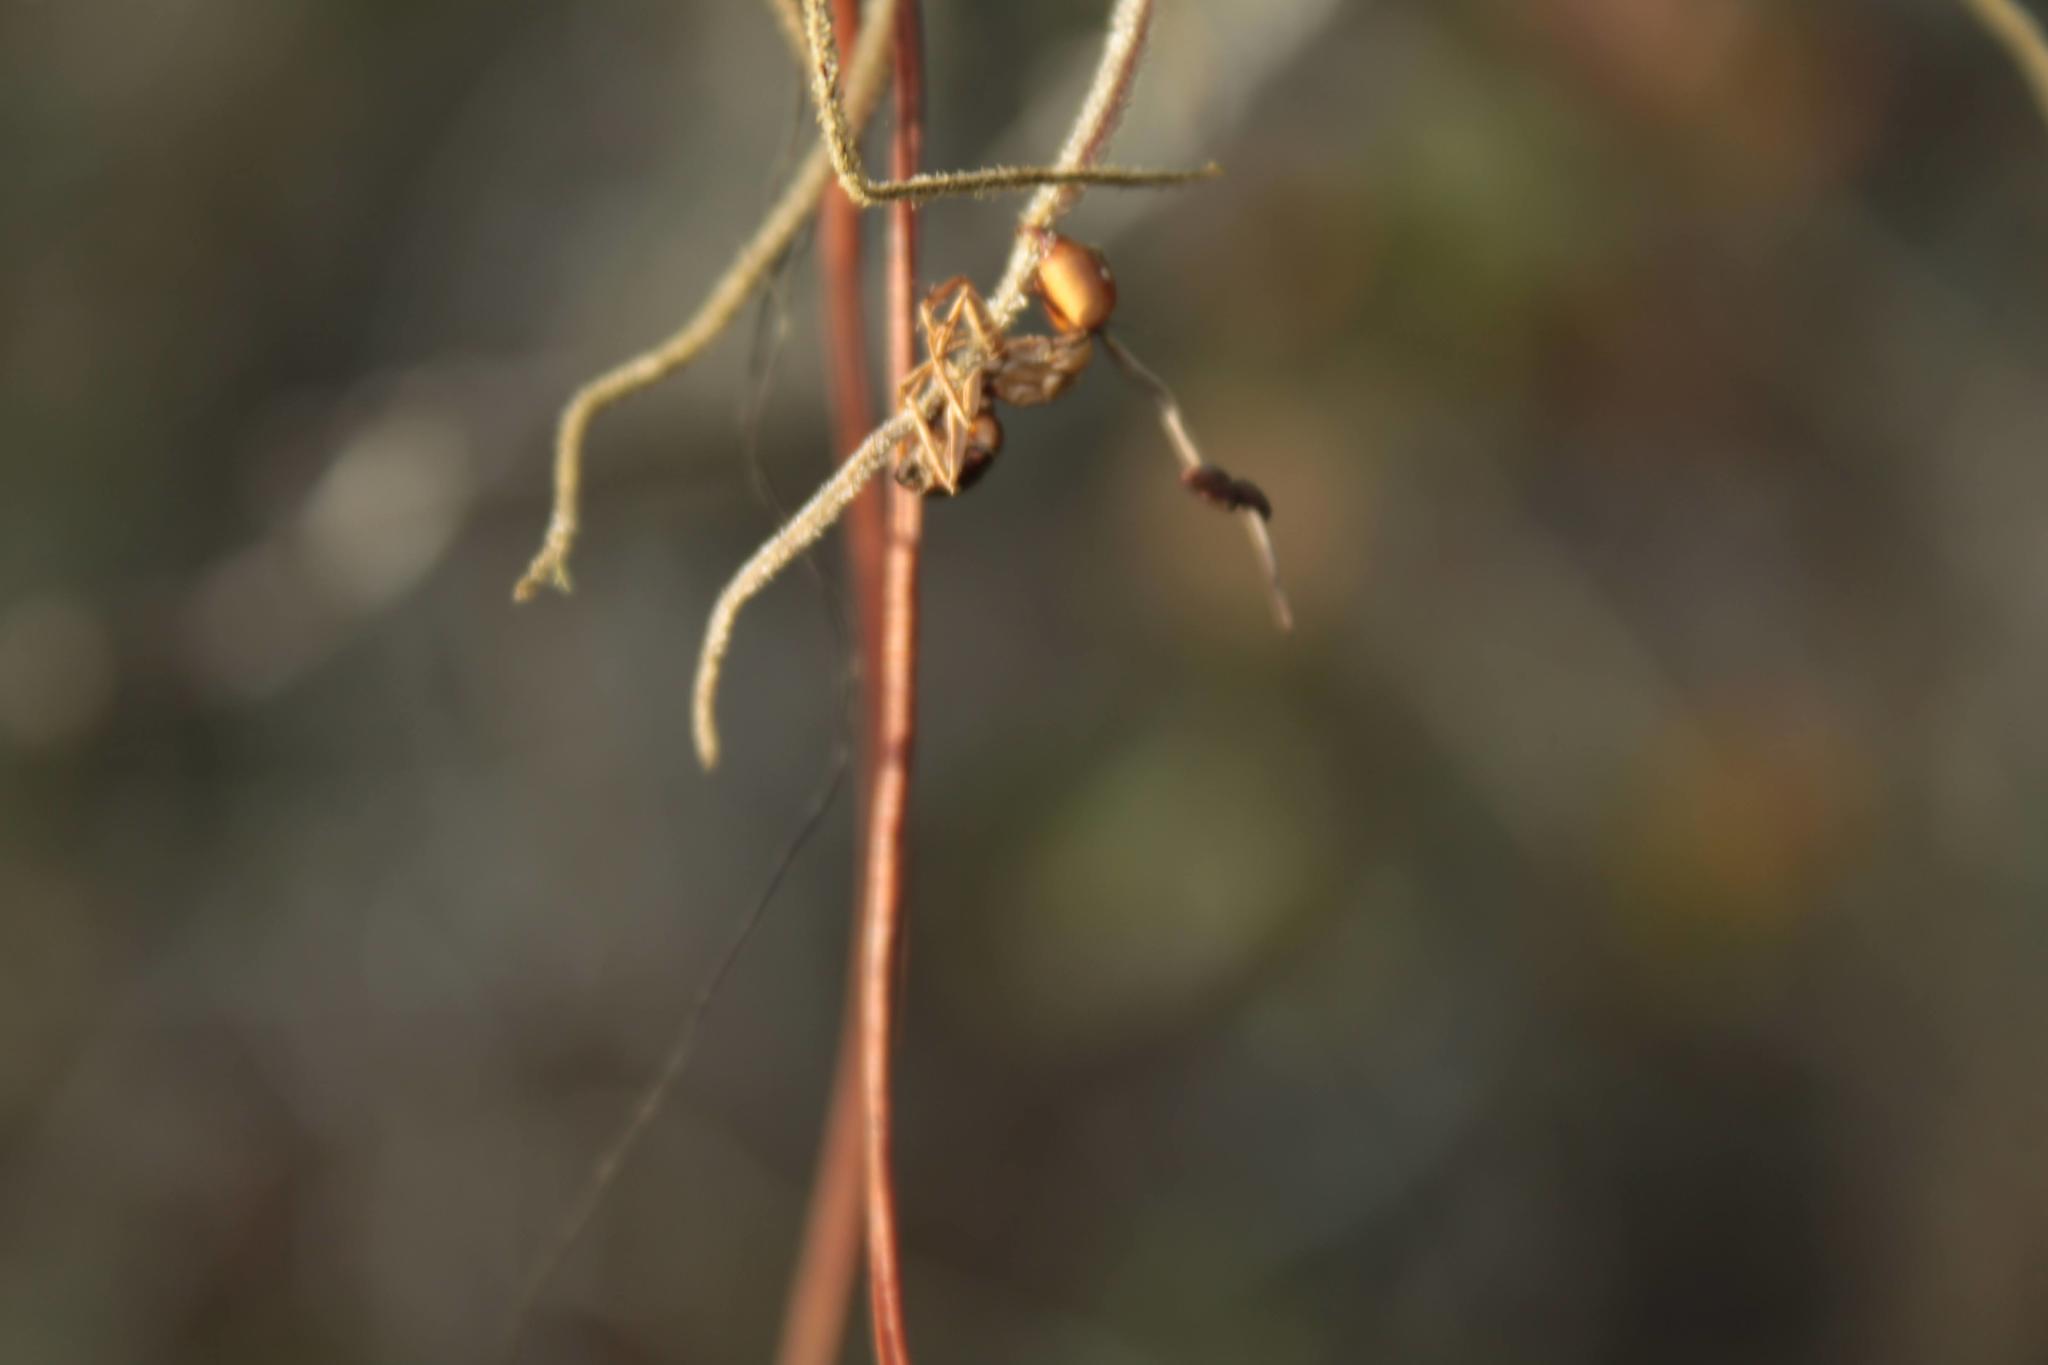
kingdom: Fungi
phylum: Ascomycota
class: Sordariomycetes
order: Hypocreales
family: Ophiocordycipitaceae
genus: Ophiocordyceps
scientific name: Ophiocordyceps camponoti-floridani
